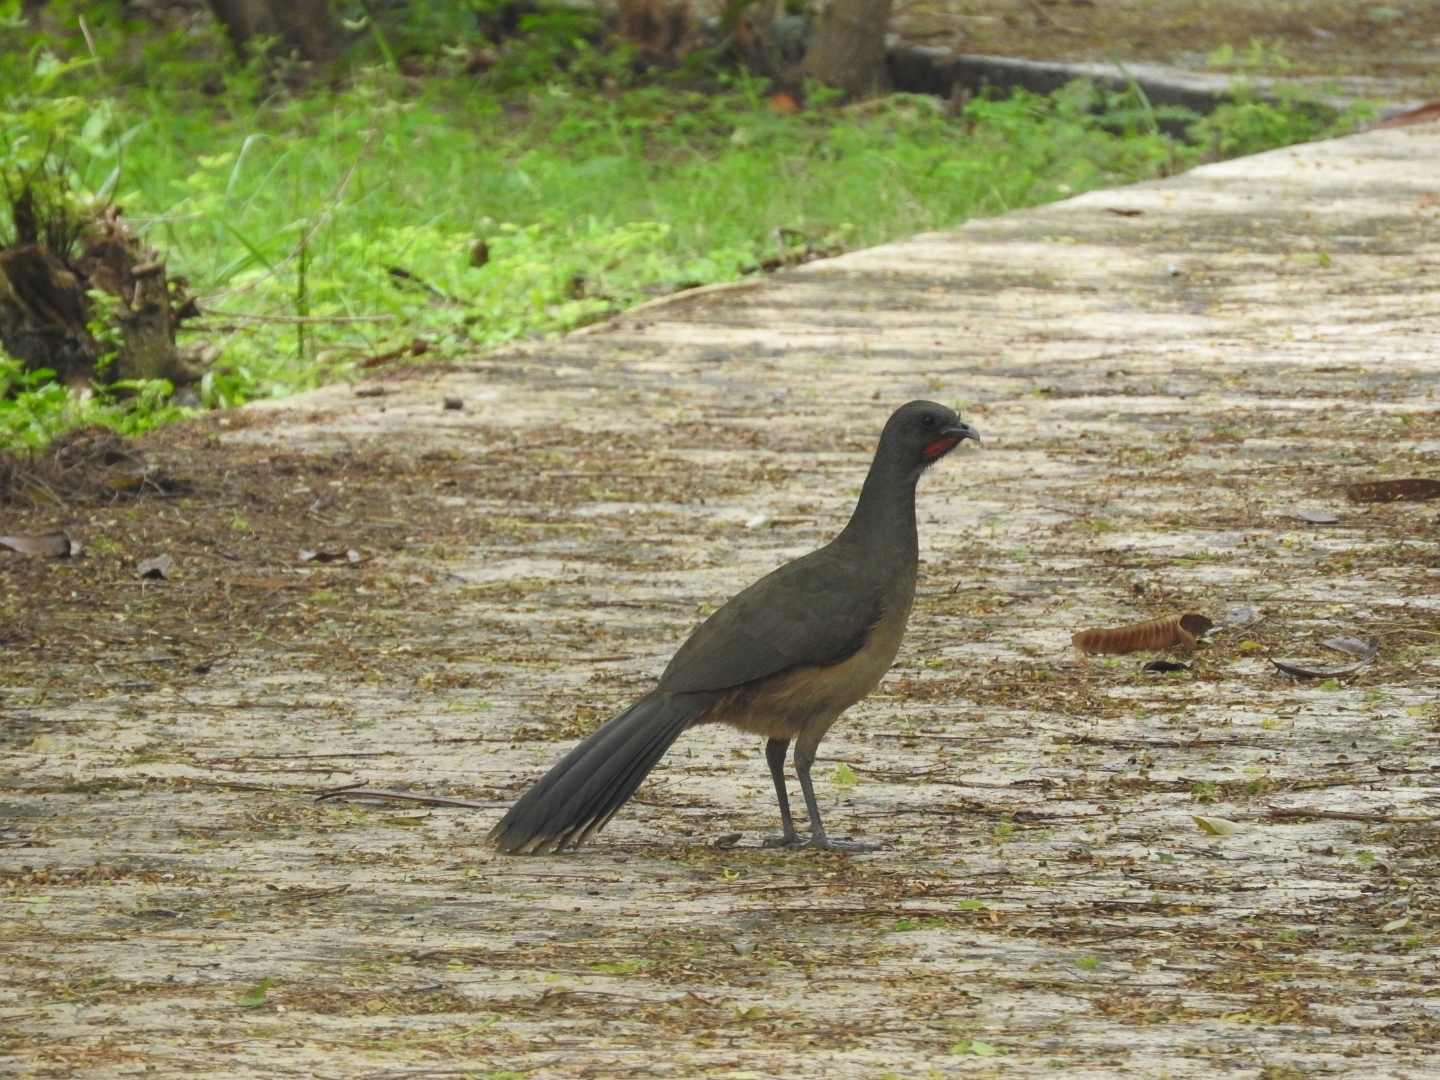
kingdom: Animalia
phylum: Chordata
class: Aves
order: Galliformes
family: Cracidae
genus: Ortalis
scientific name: Ortalis vetula
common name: Plain chachalaca
